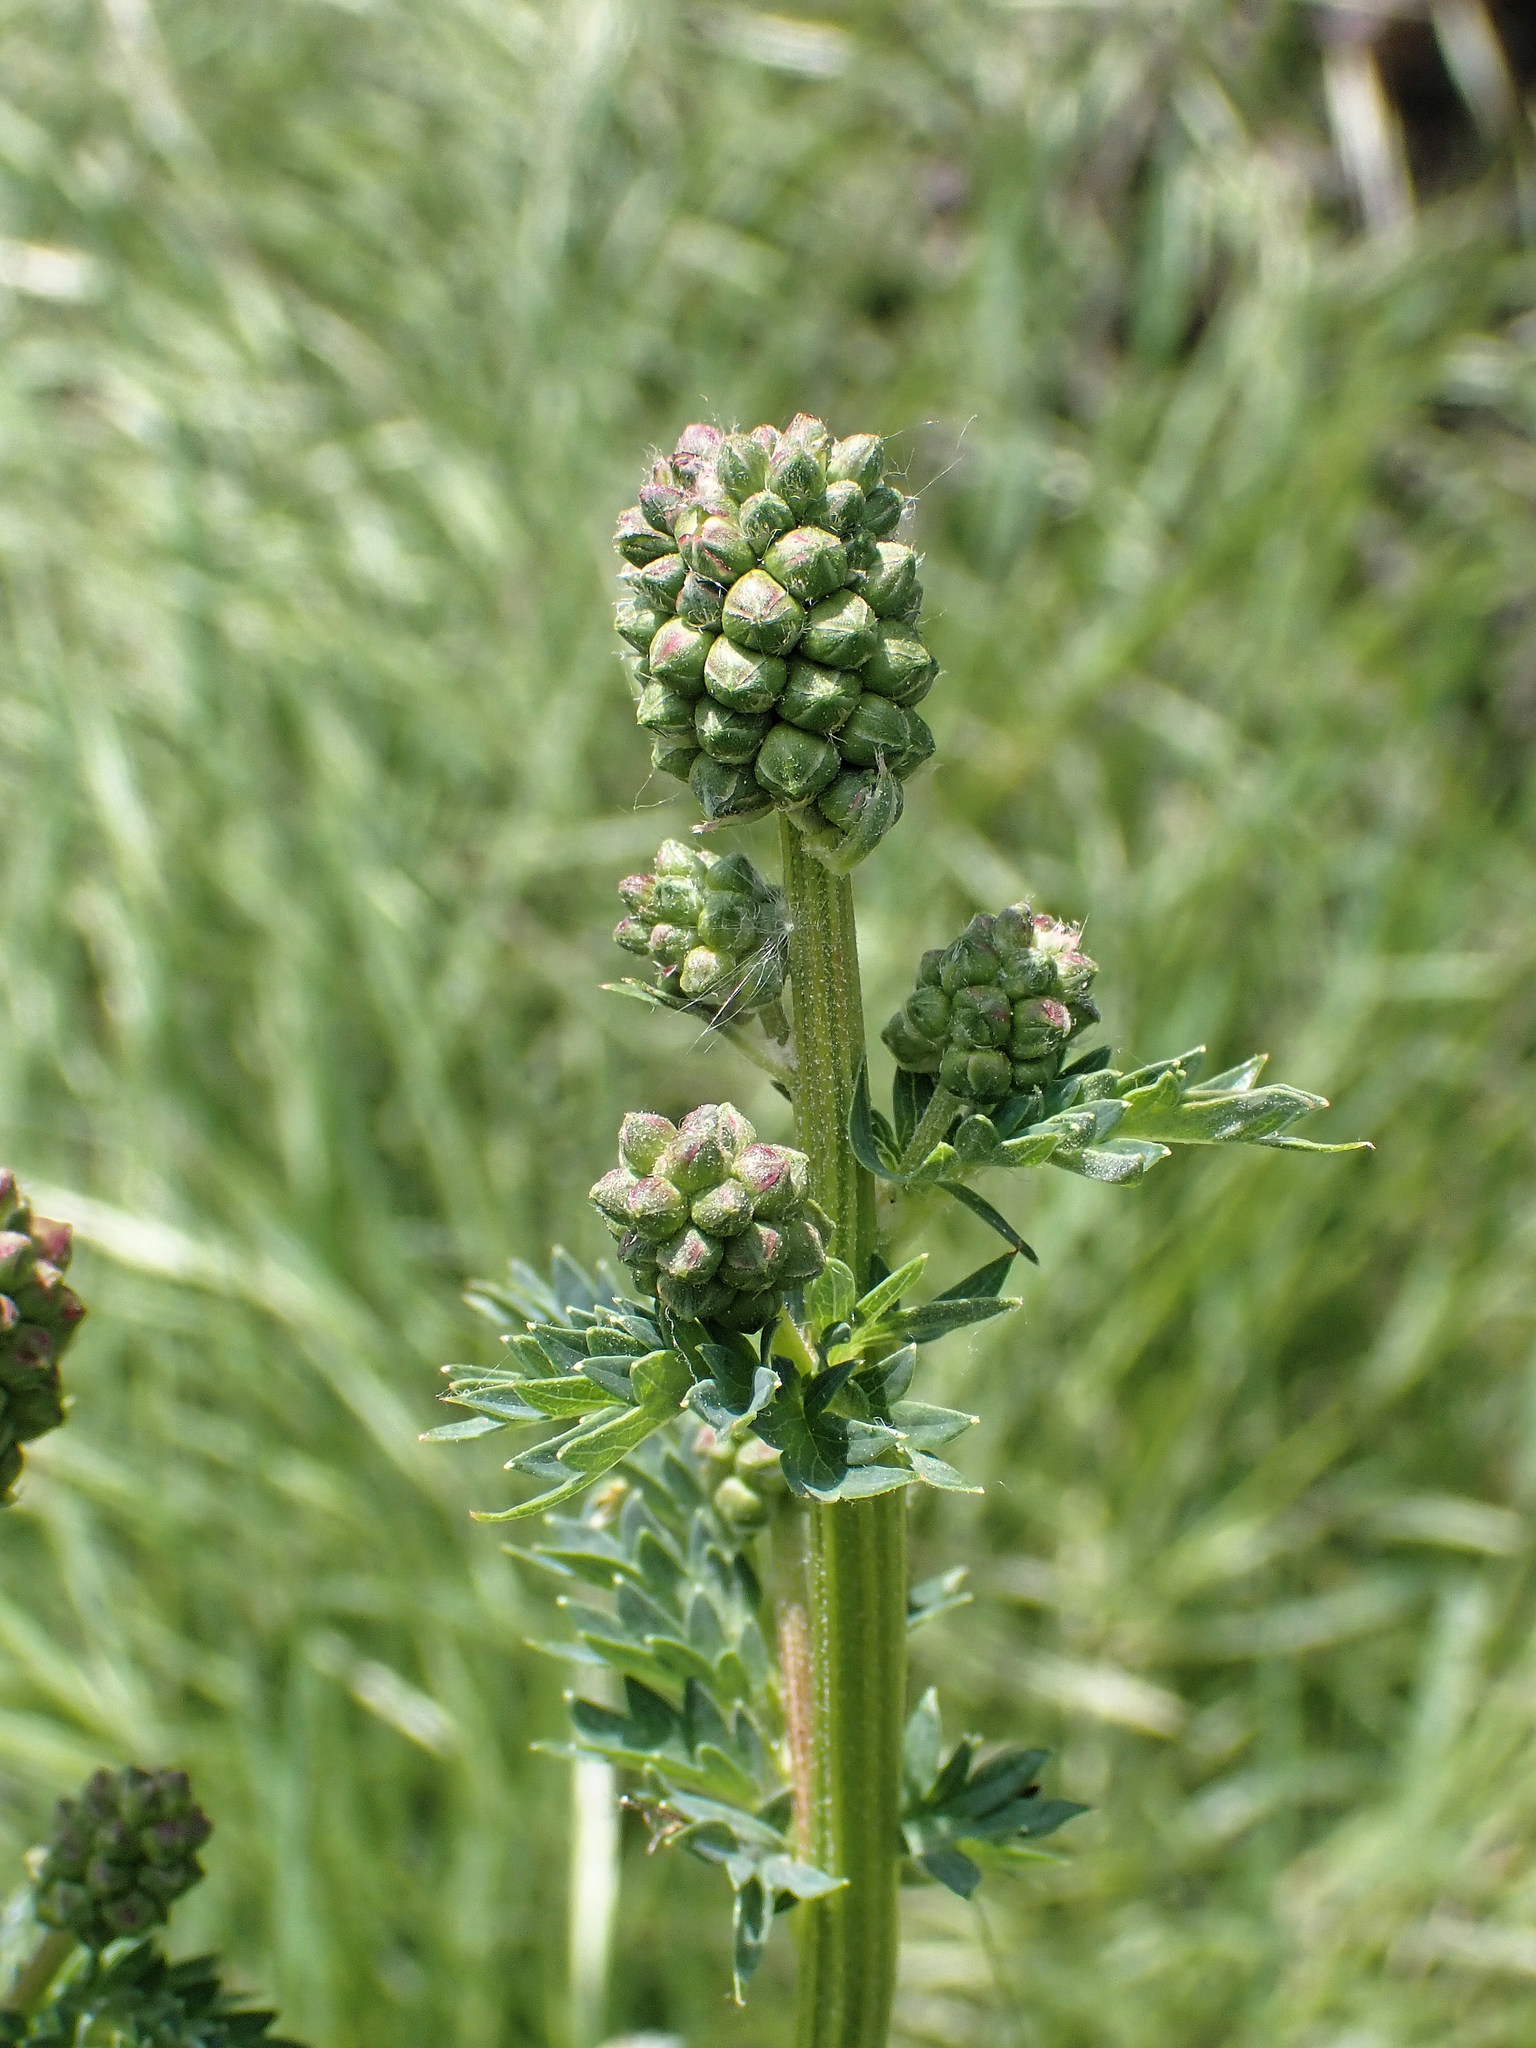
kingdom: Plantae
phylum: Tracheophyta
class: Magnoliopsida
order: Rosales
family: Rosaceae
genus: Sanguisorba
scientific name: Sanguisorba officinalis
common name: Great burnet
